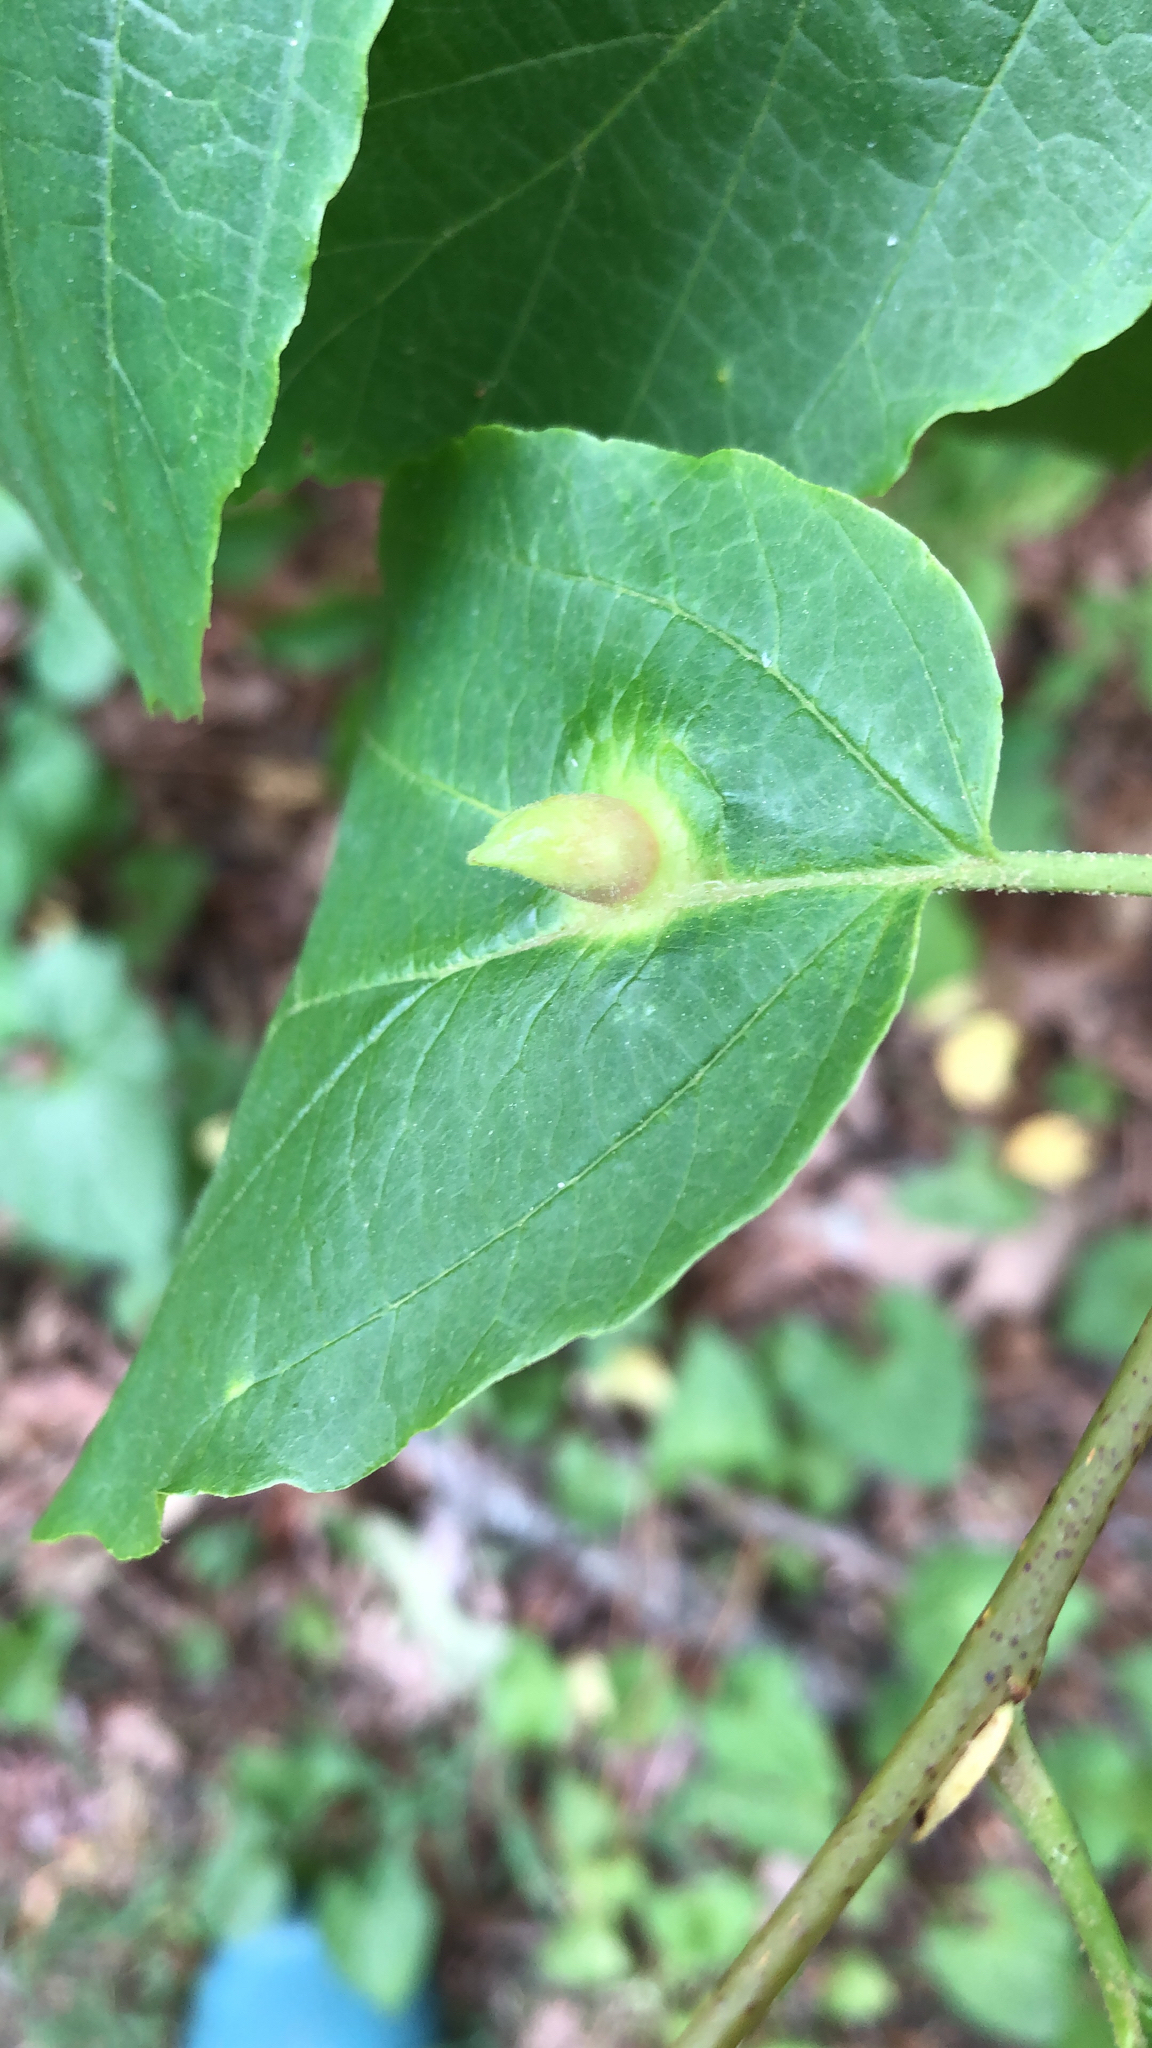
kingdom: Animalia
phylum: Arthropoda
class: Insecta
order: Hemiptera
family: Aphididae
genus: Hormaphis
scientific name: Hormaphis hamamelidis
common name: Witch-hazel cone gall aphid
